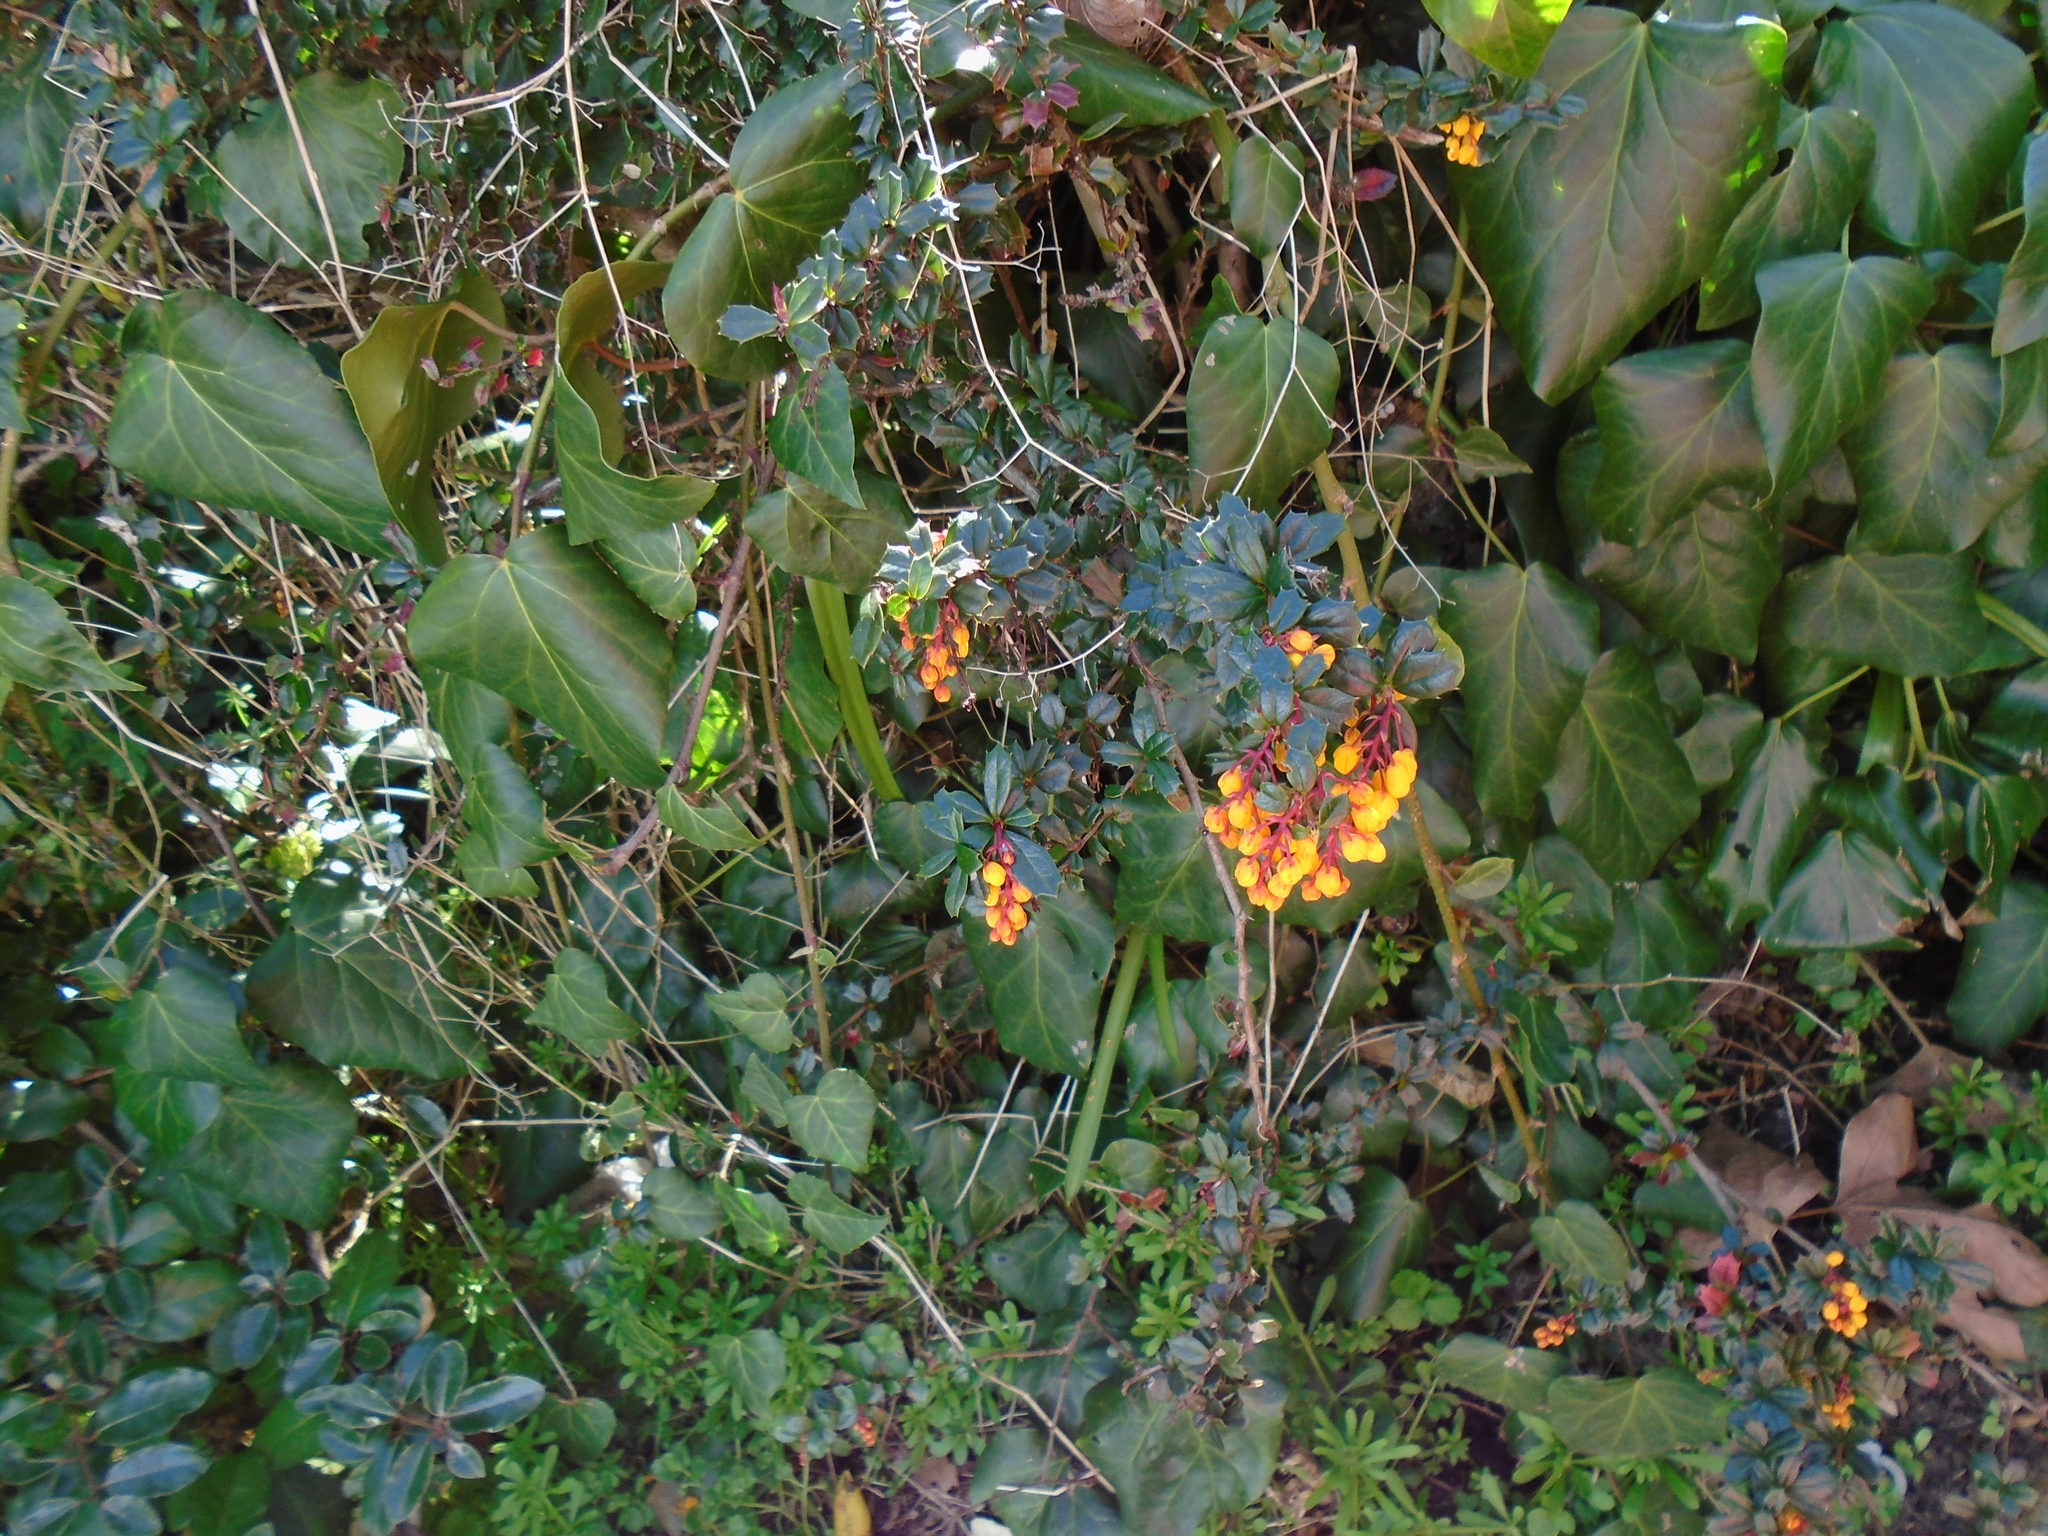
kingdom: Plantae
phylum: Tracheophyta
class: Magnoliopsida
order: Ranunculales
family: Berberidaceae
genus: Berberis
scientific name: Berberis darwinii
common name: Darwin's barberry
